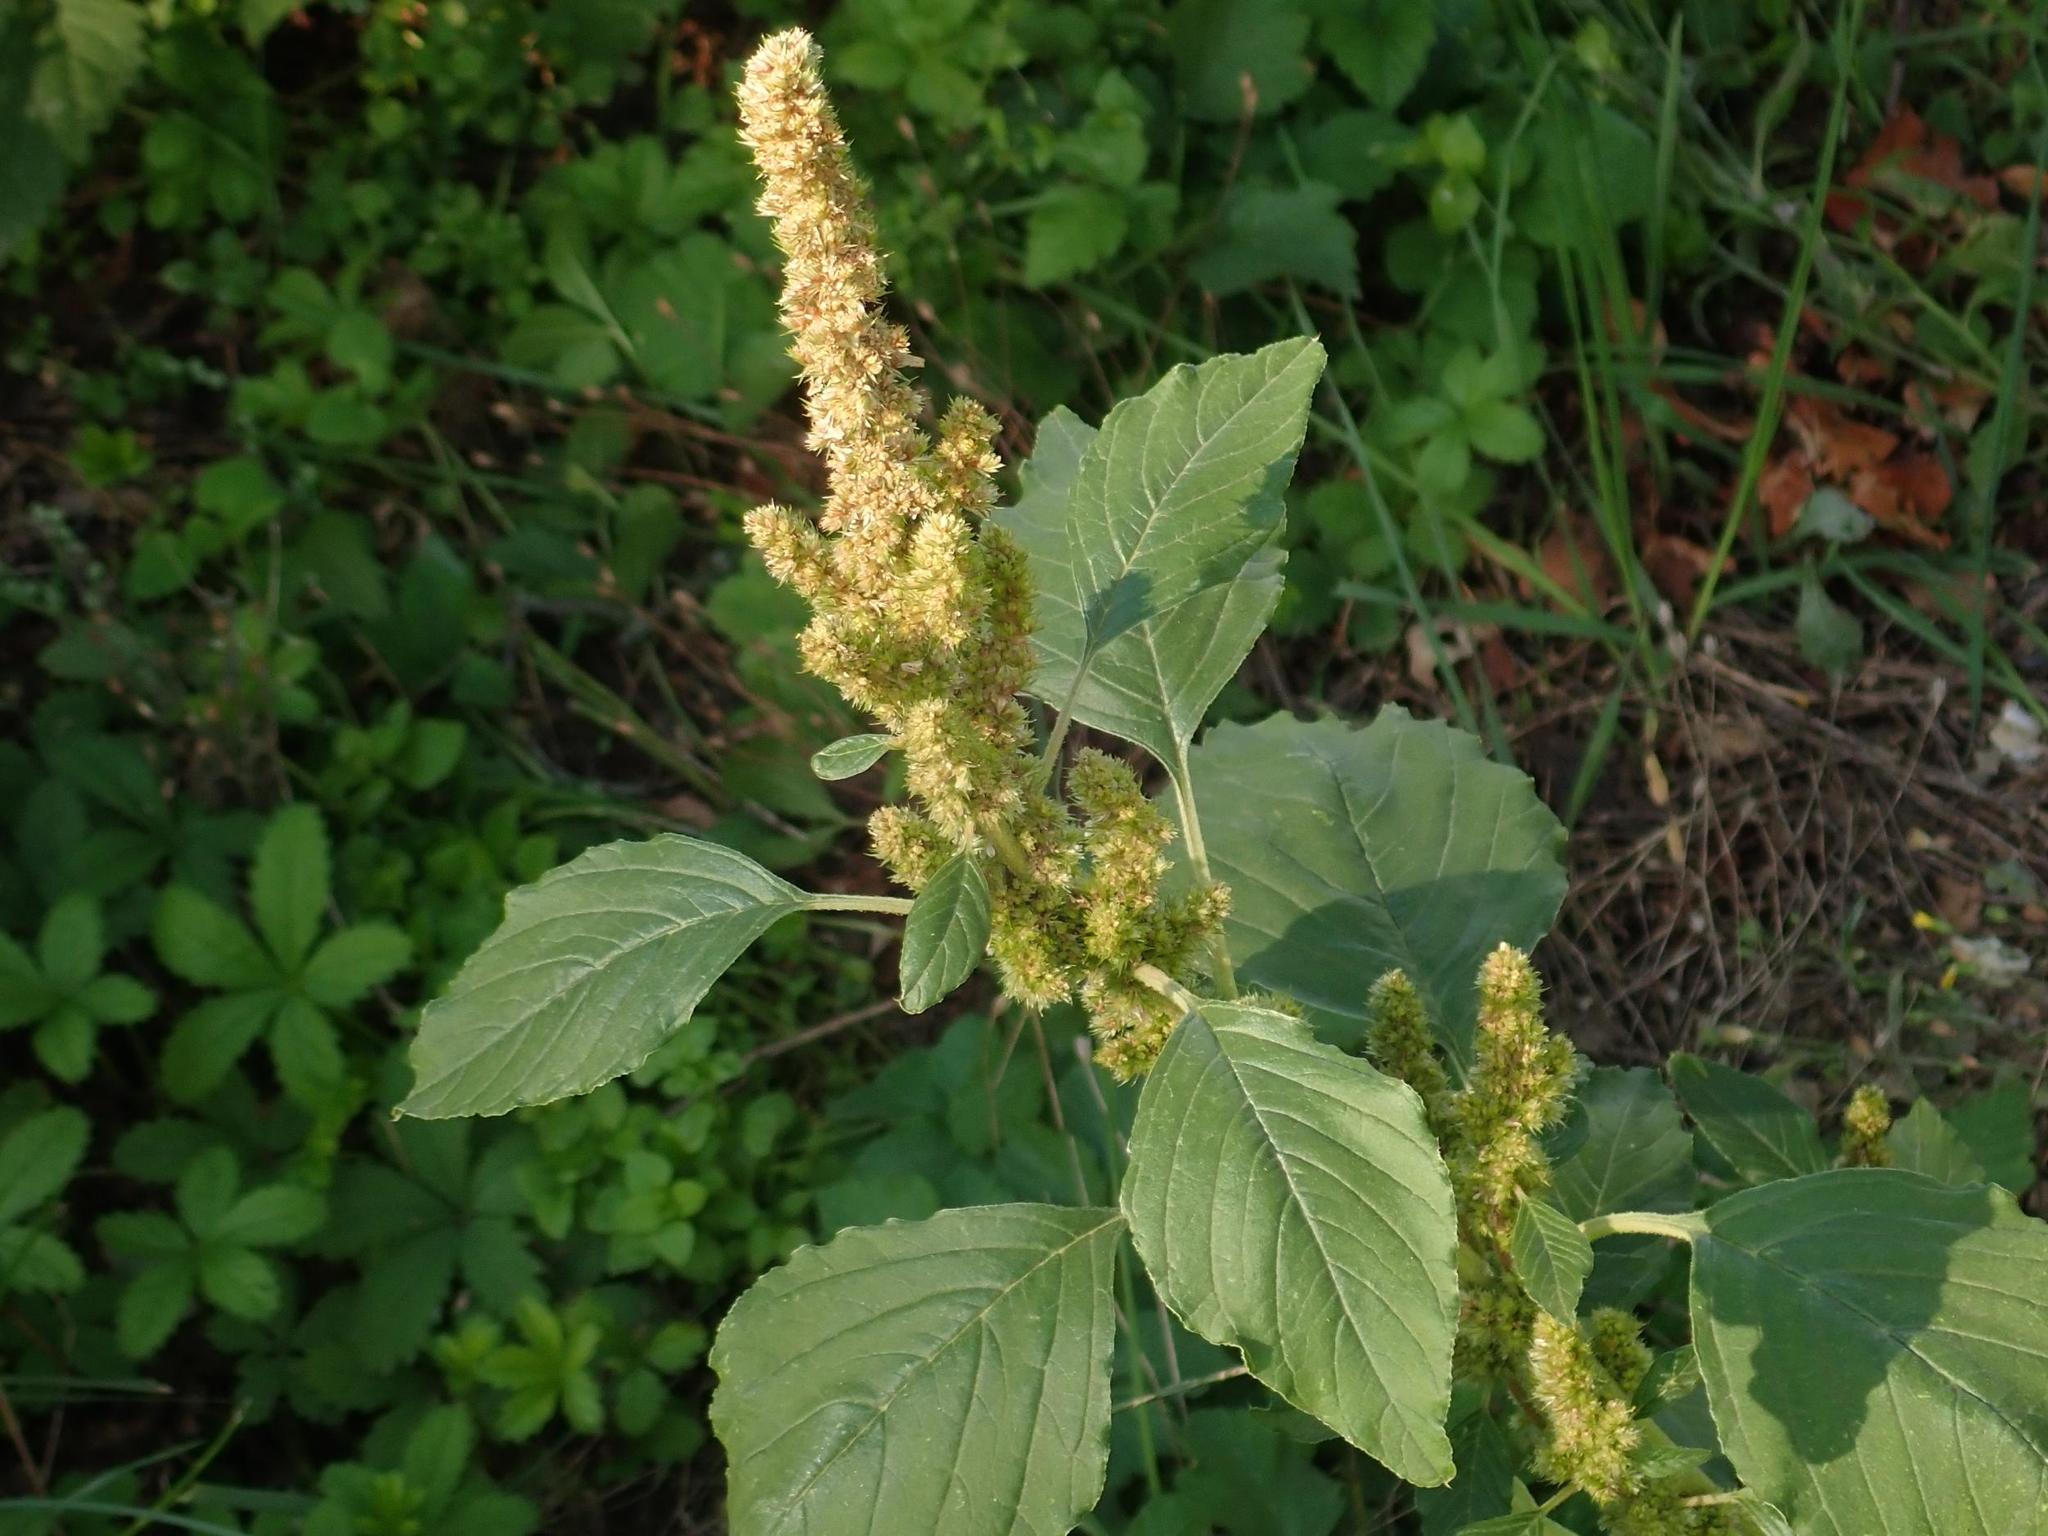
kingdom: Plantae
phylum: Tracheophyta
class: Magnoliopsida
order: Caryophyllales
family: Amaranthaceae
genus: Amaranthus
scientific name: Amaranthus retroflexus
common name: Redroot amaranth
